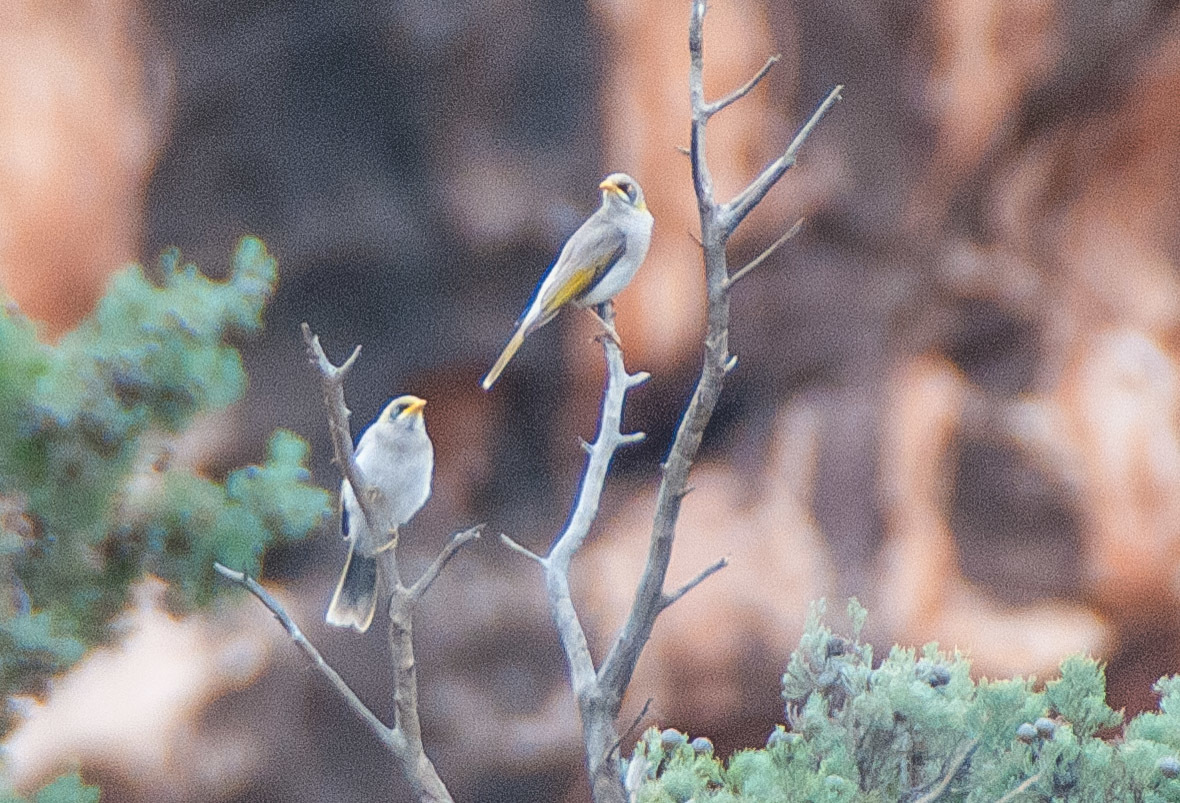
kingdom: Animalia
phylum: Chordata
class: Aves
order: Passeriformes
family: Meliphagidae
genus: Manorina
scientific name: Manorina flavigula
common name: Yellow-throated miner
